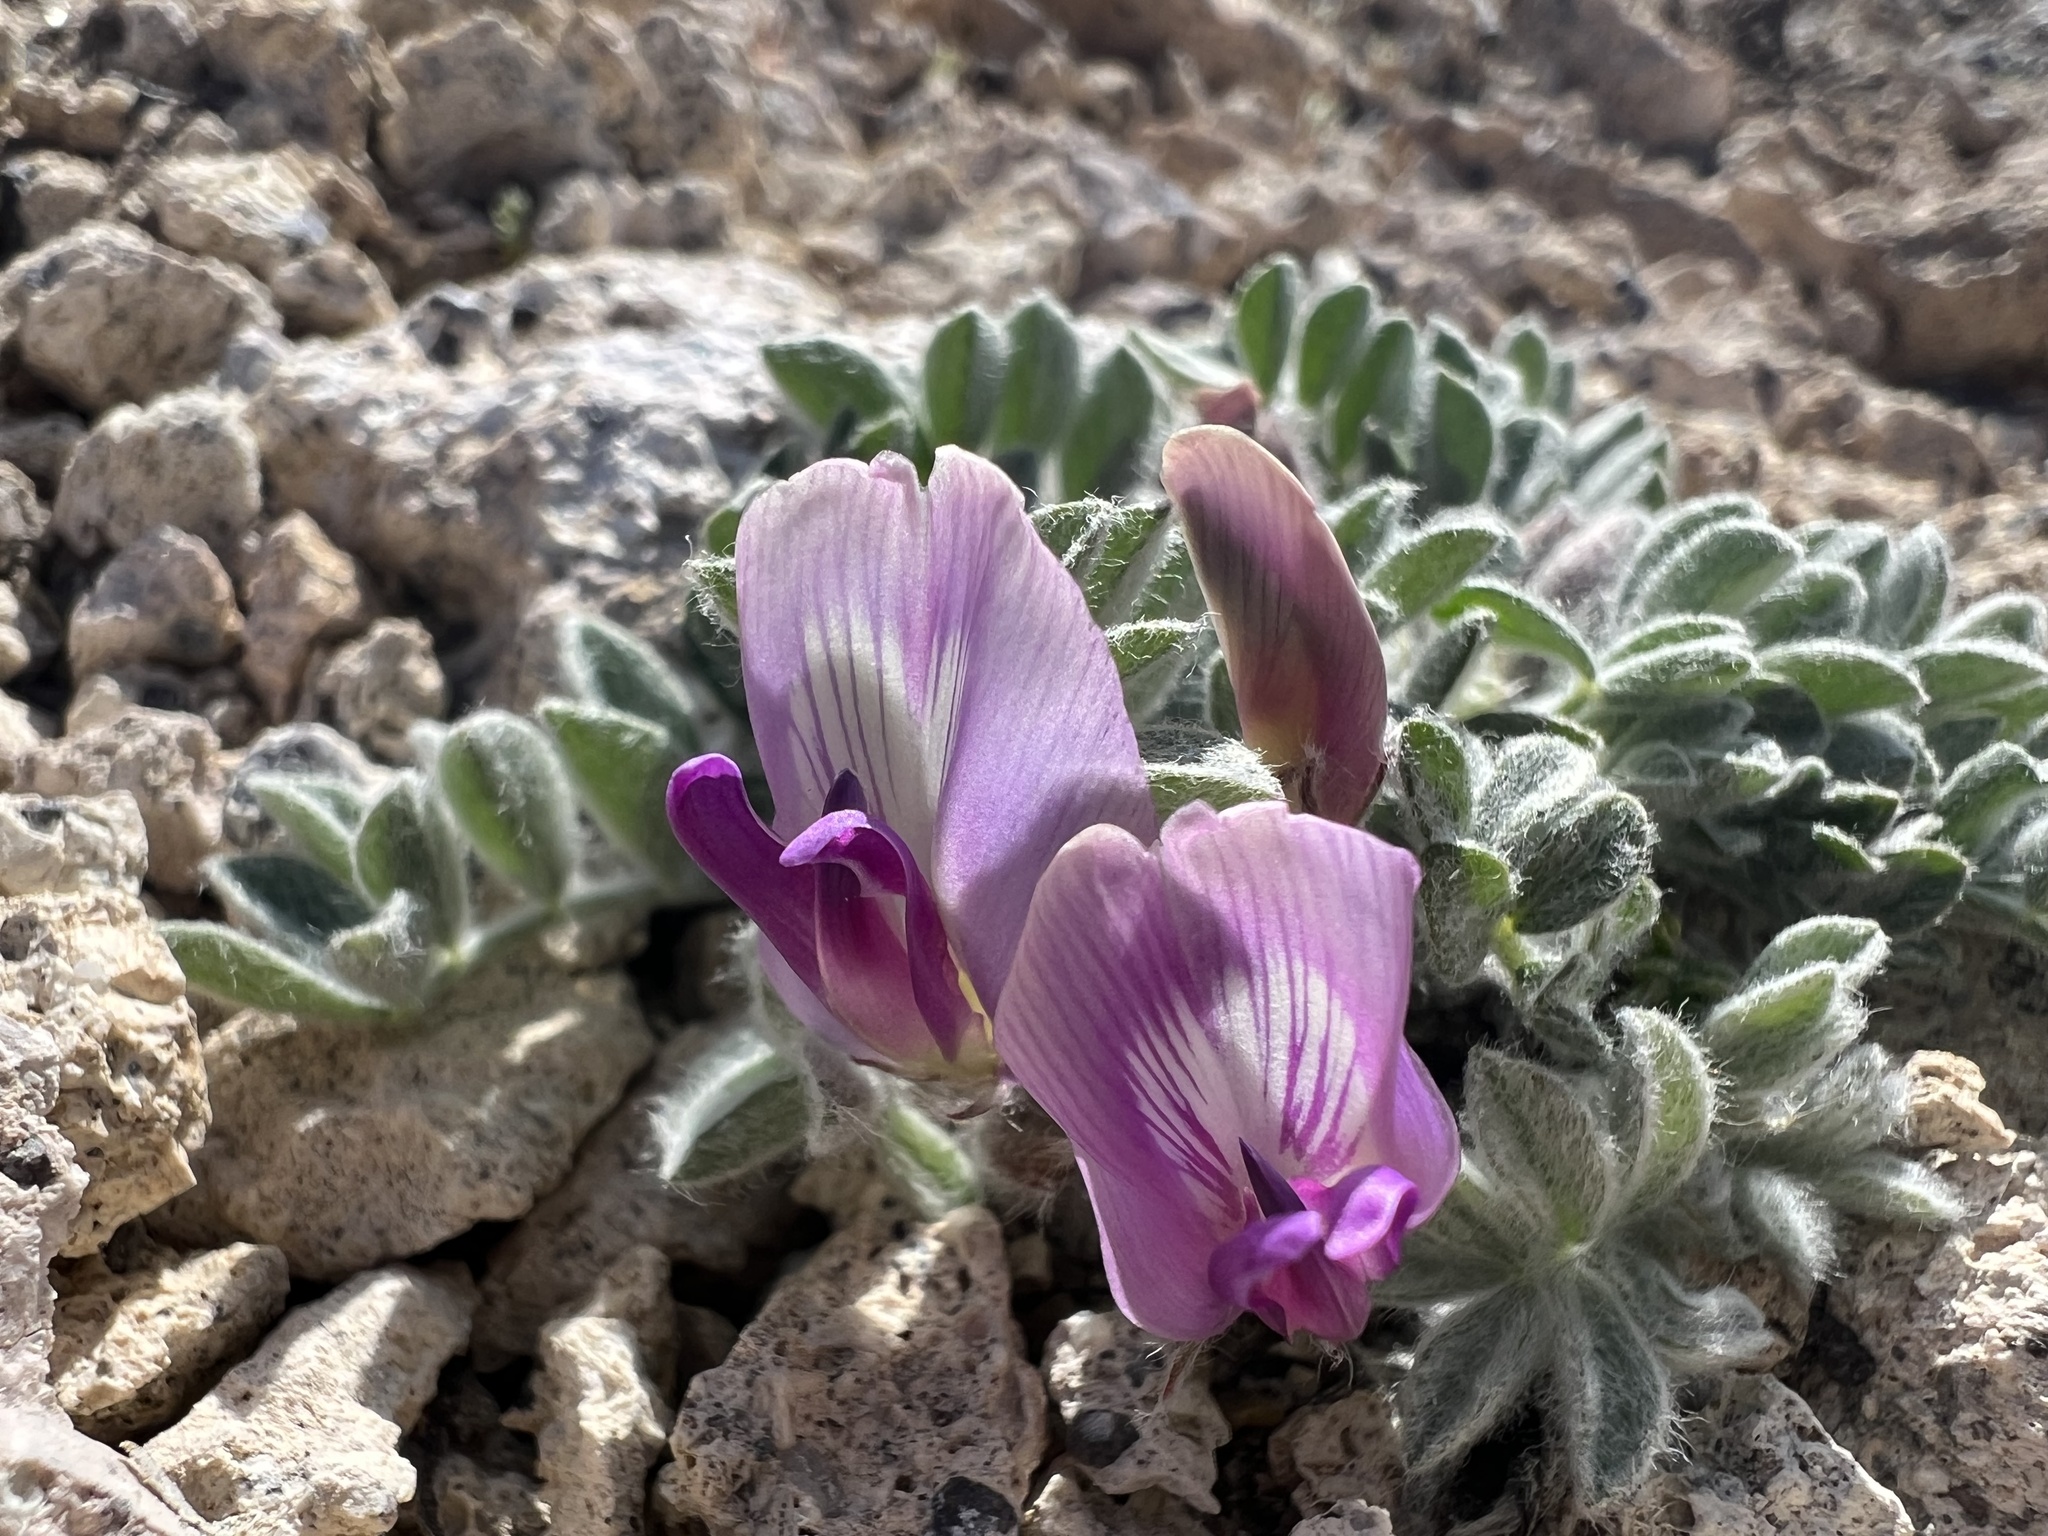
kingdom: Plantae
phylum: Tracheophyta
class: Magnoliopsida
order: Fabales
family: Fabaceae
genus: Astragalus
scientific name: Astragalus purshii
